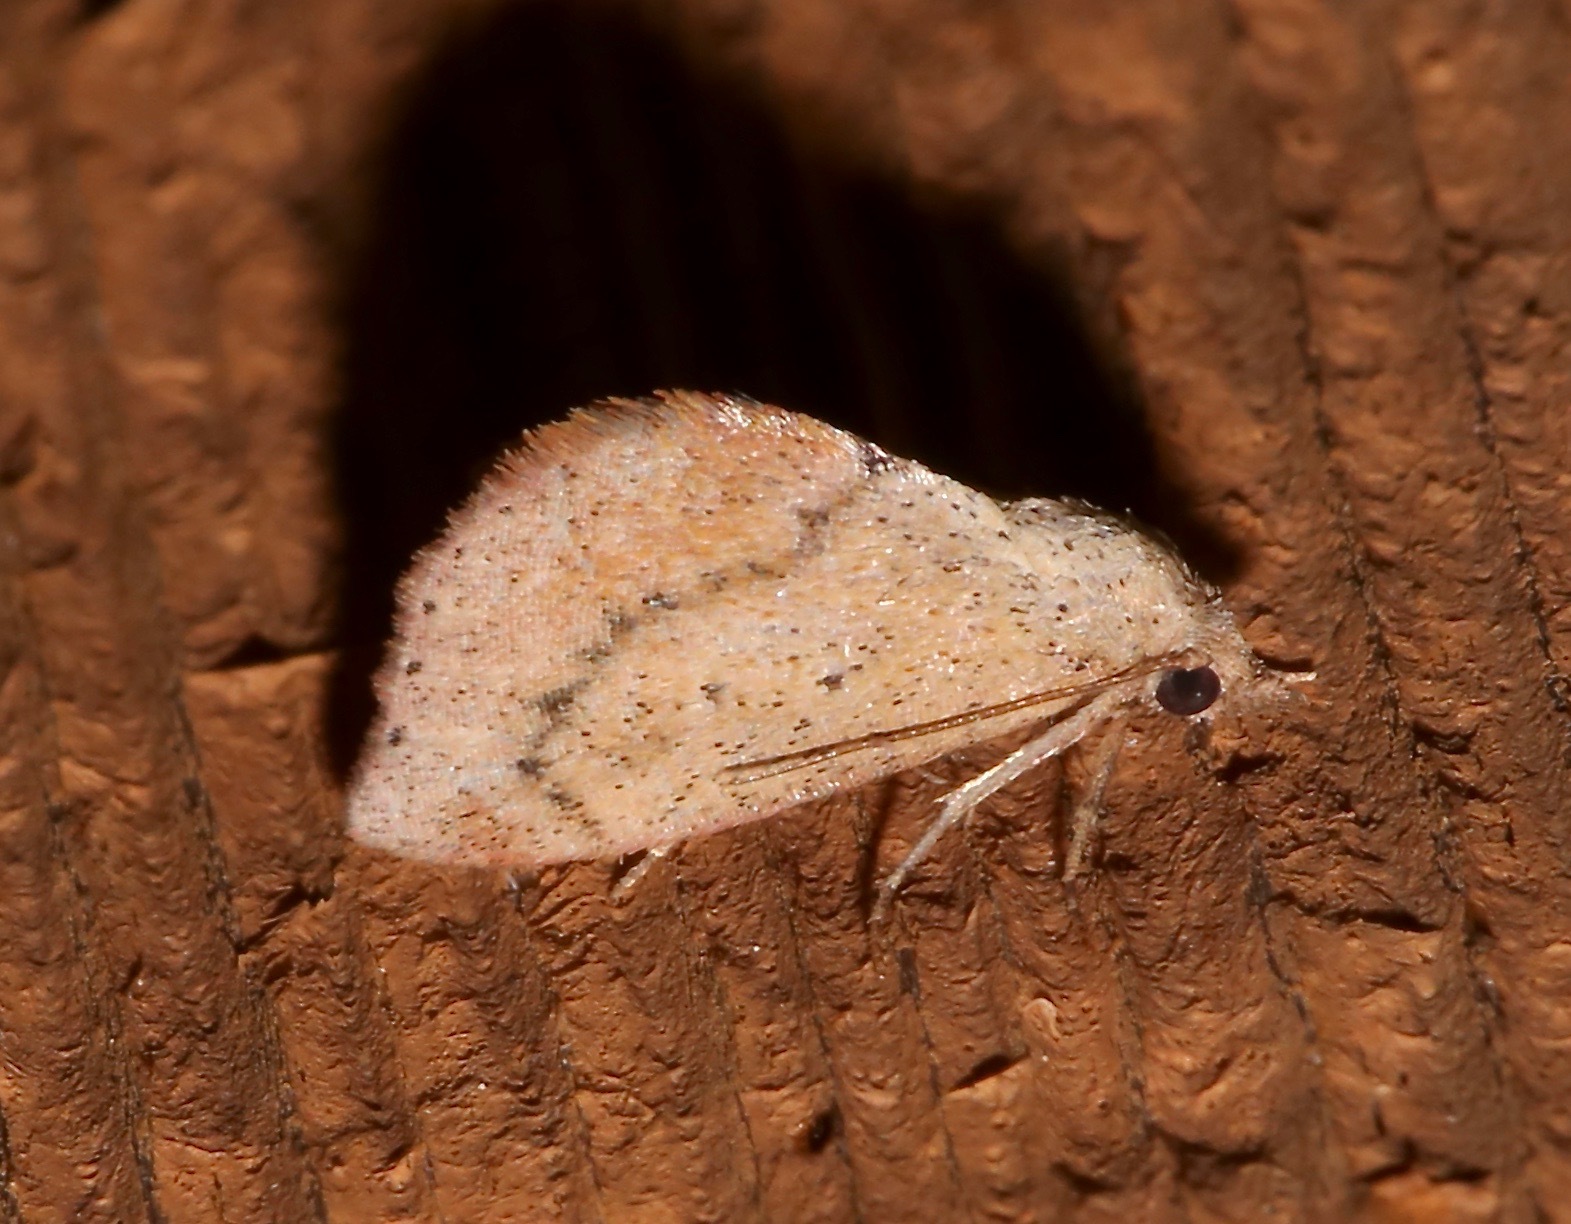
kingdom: Animalia
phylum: Arthropoda
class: Insecta
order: Lepidoptera
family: Noctuidae
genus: Proroblemma
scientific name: Proroblemma testa
